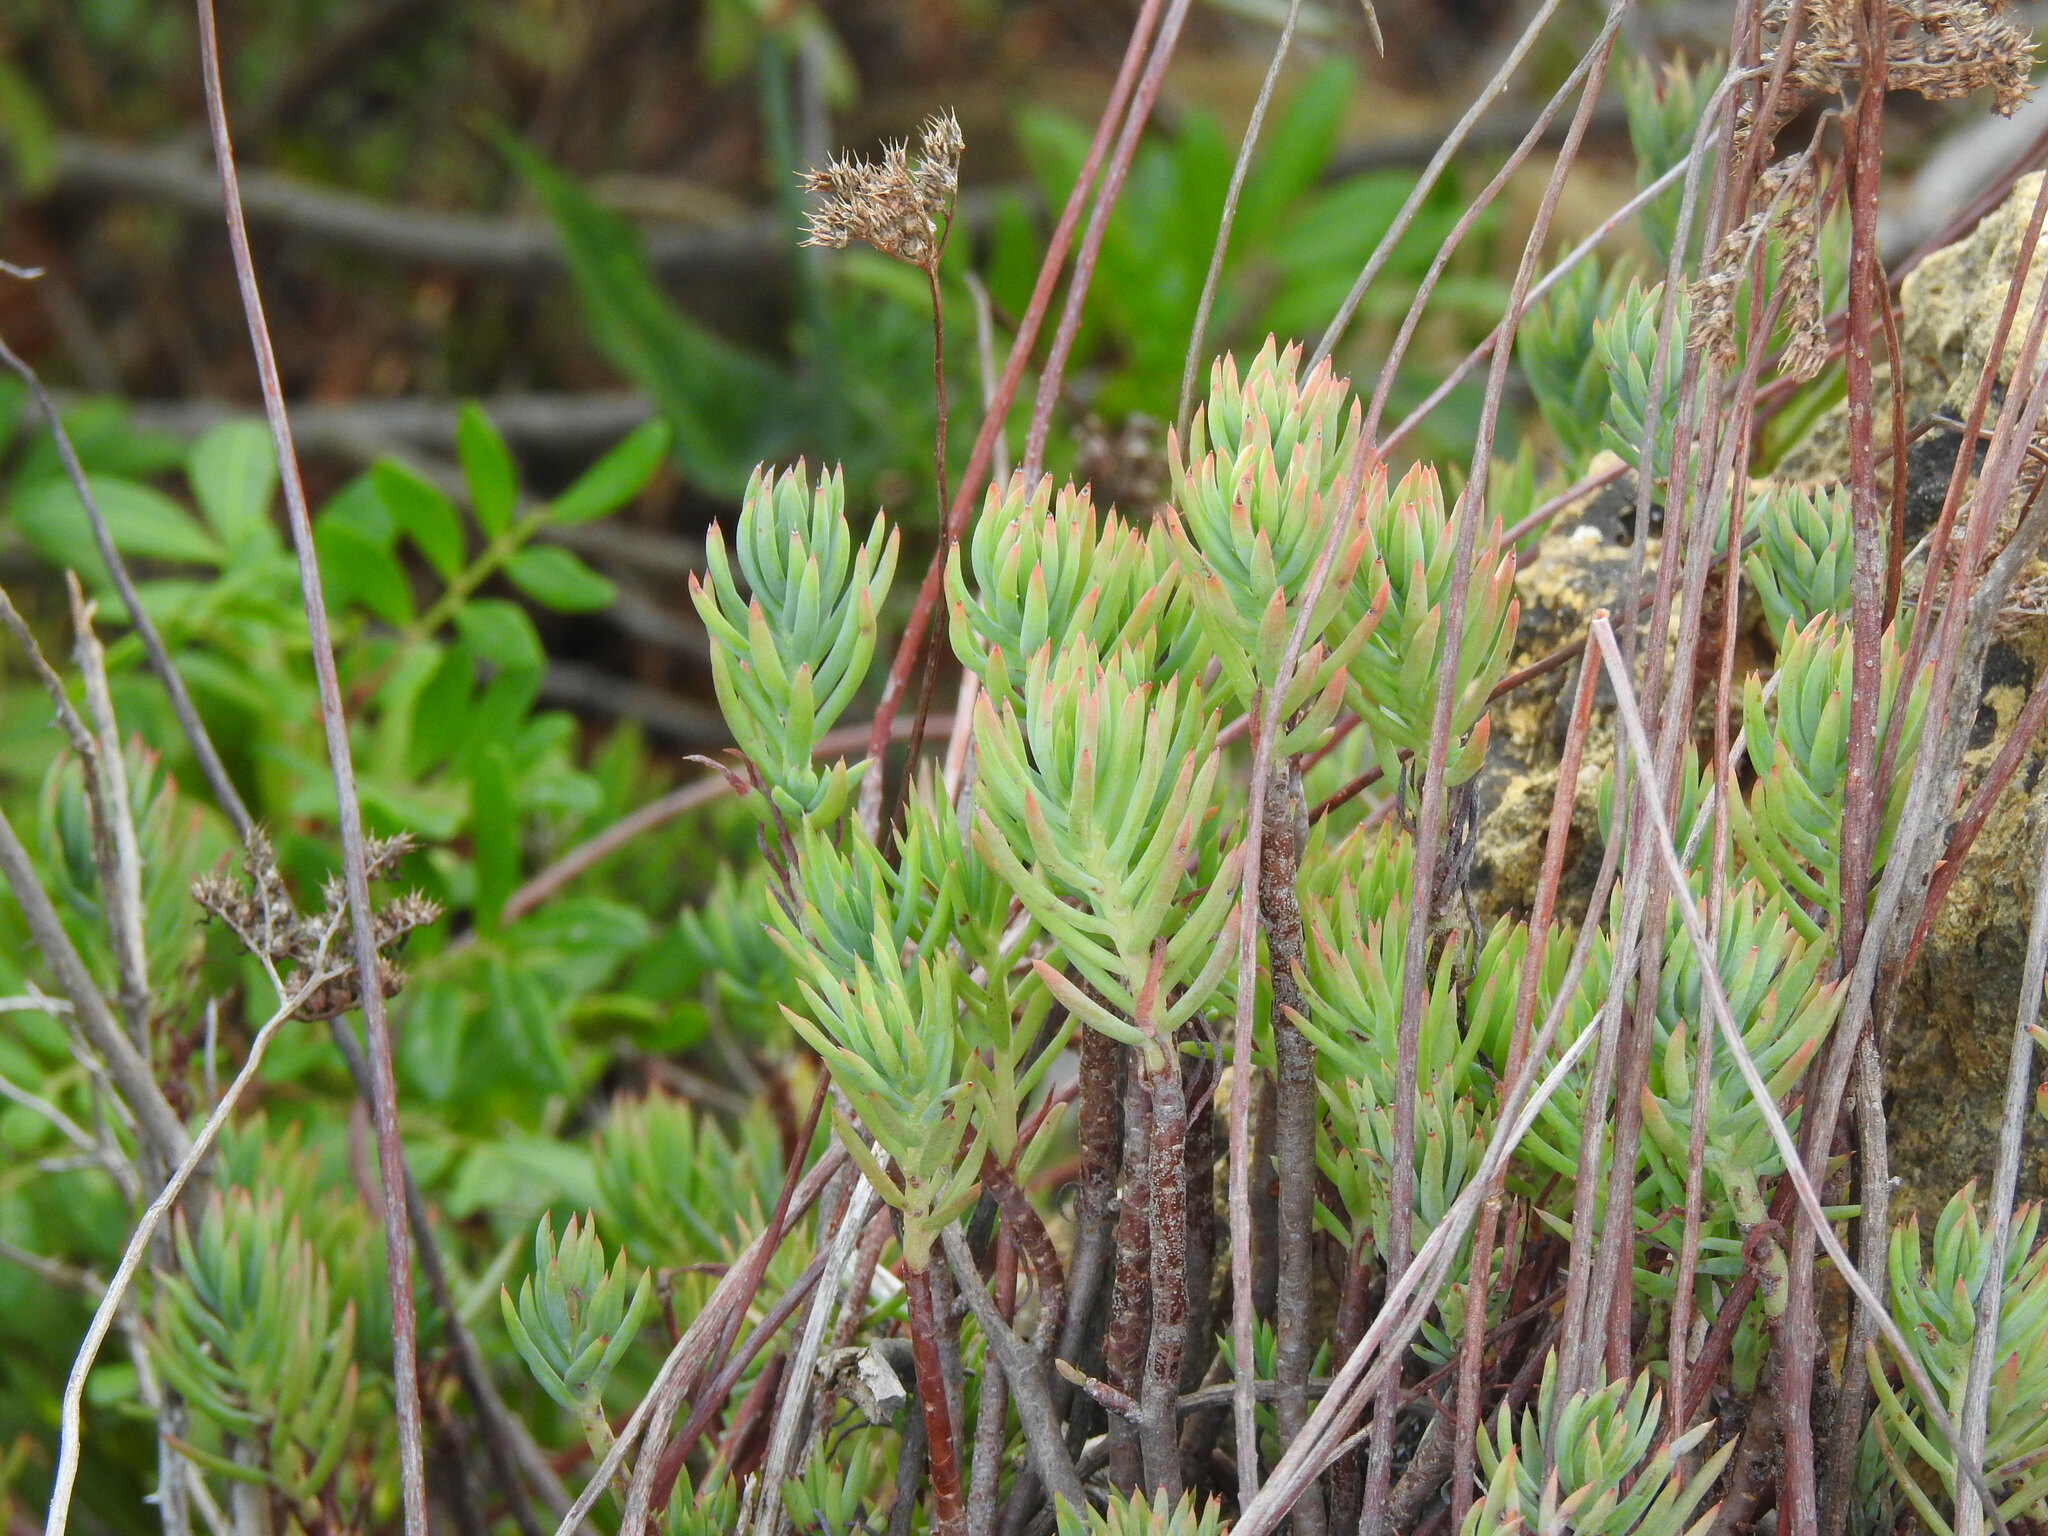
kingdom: Plantae
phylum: Tracheophyta
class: Magnoliopsida
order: Saxifragales
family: Crassulaceae
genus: Petrosedum
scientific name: Petrosedum sediforme
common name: Pale stonecrop
